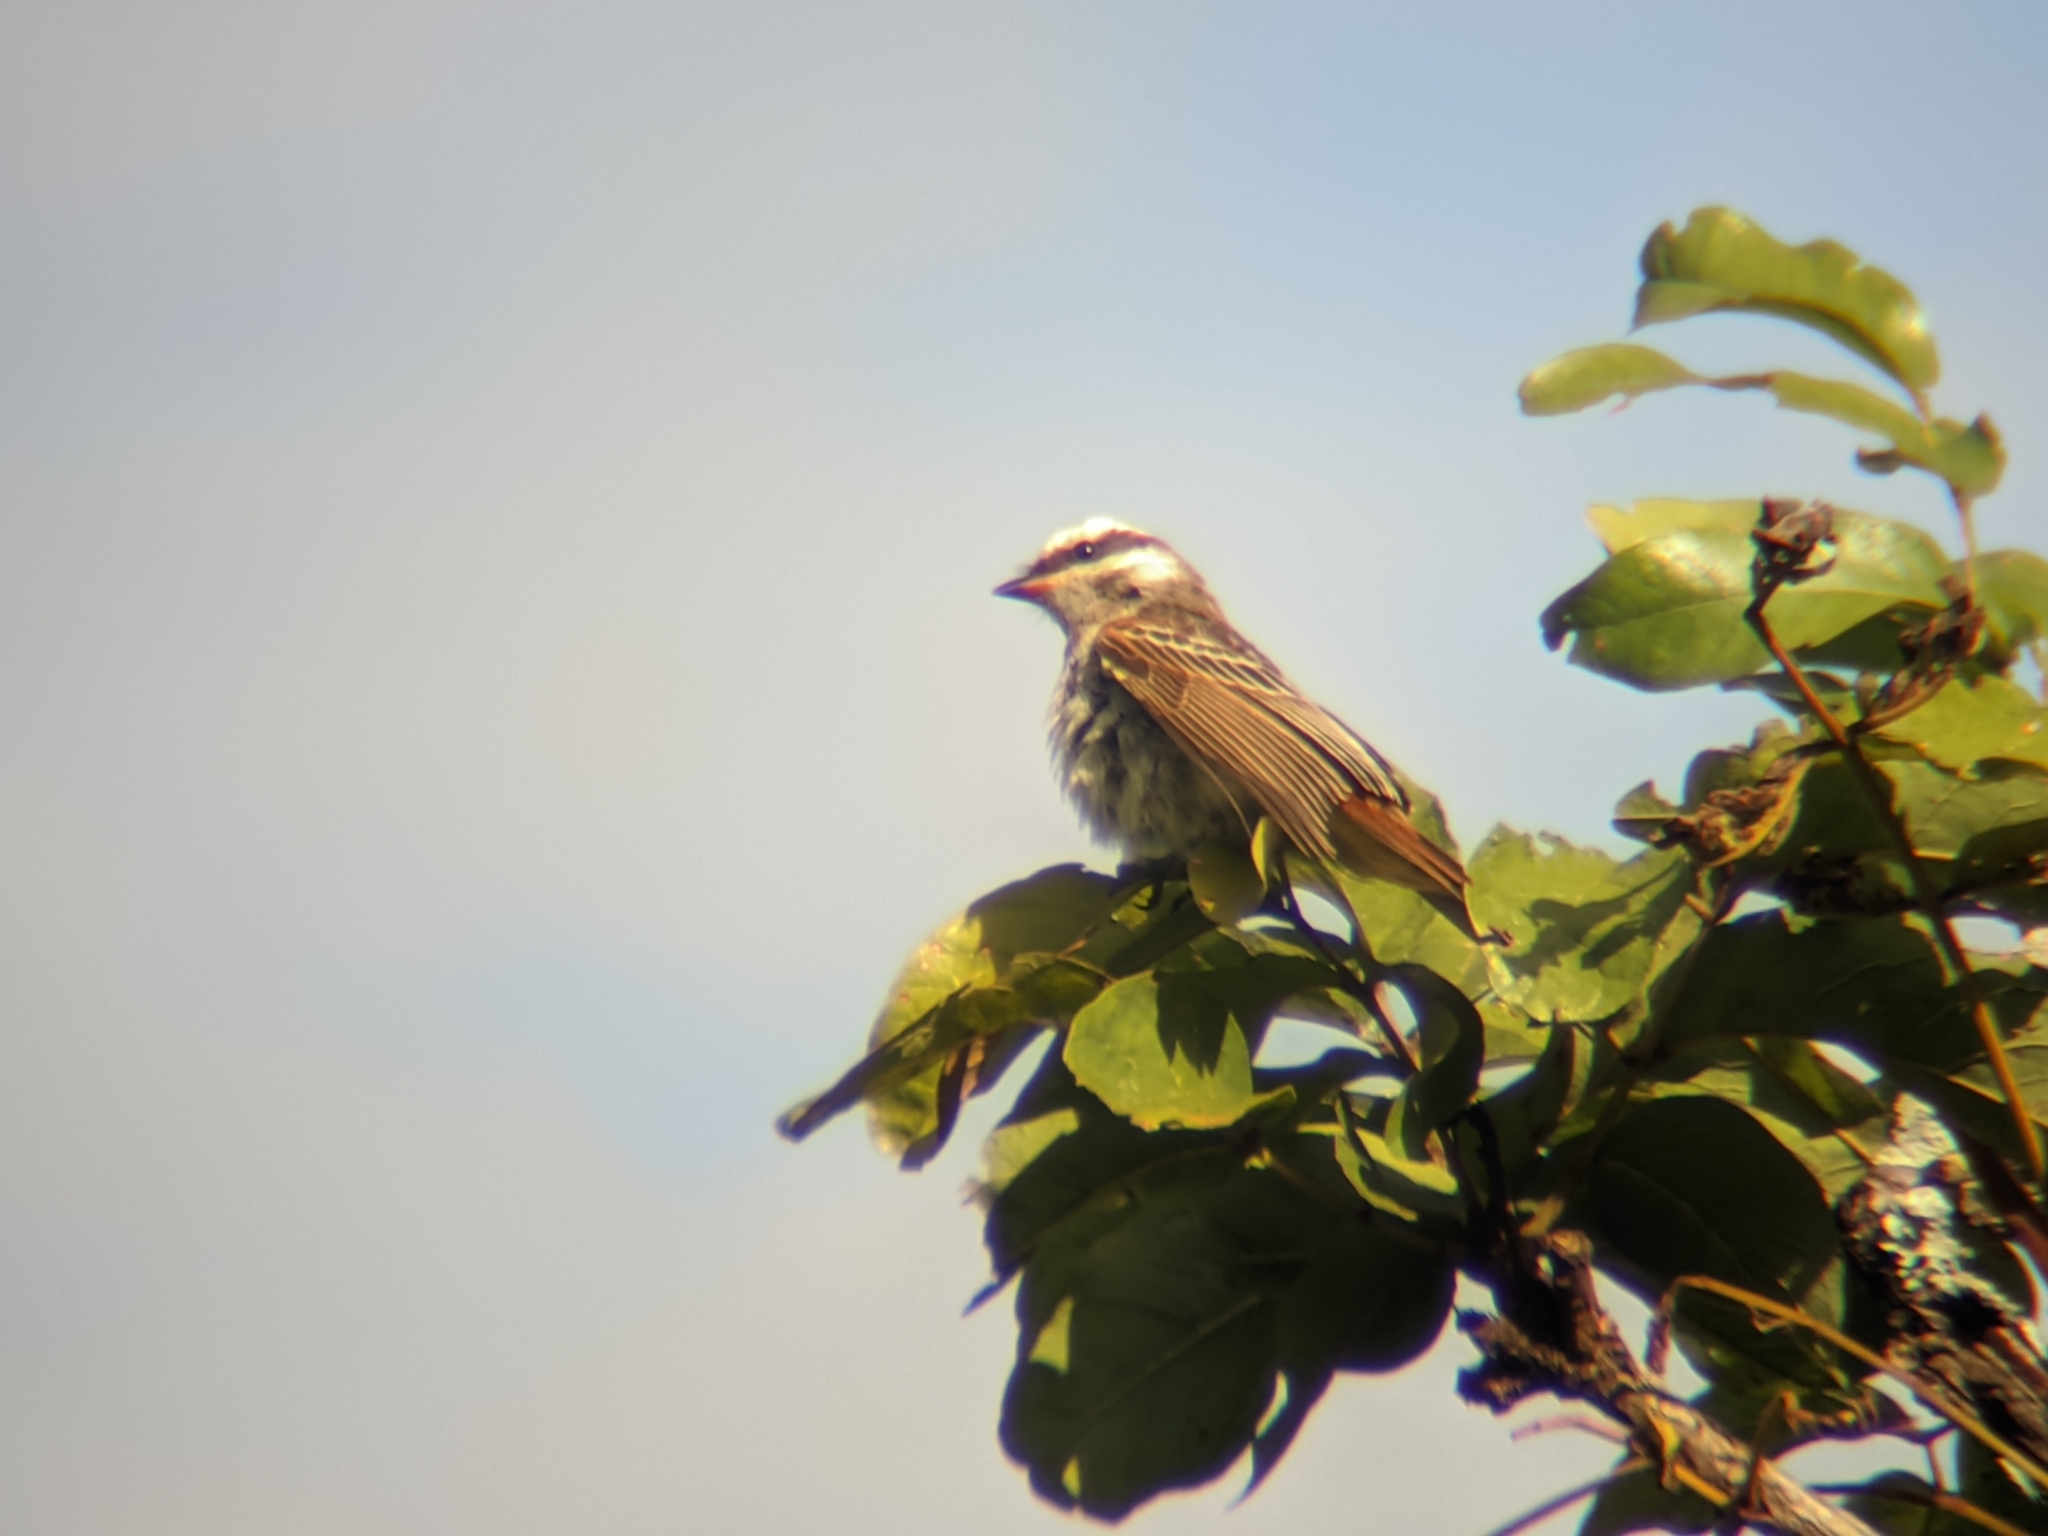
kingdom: Animalia
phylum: Chordata
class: Aves
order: Passeriformes
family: Tyrannidae
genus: Empidonomus
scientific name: Empidonomus varius
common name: Variegated flycatcher
